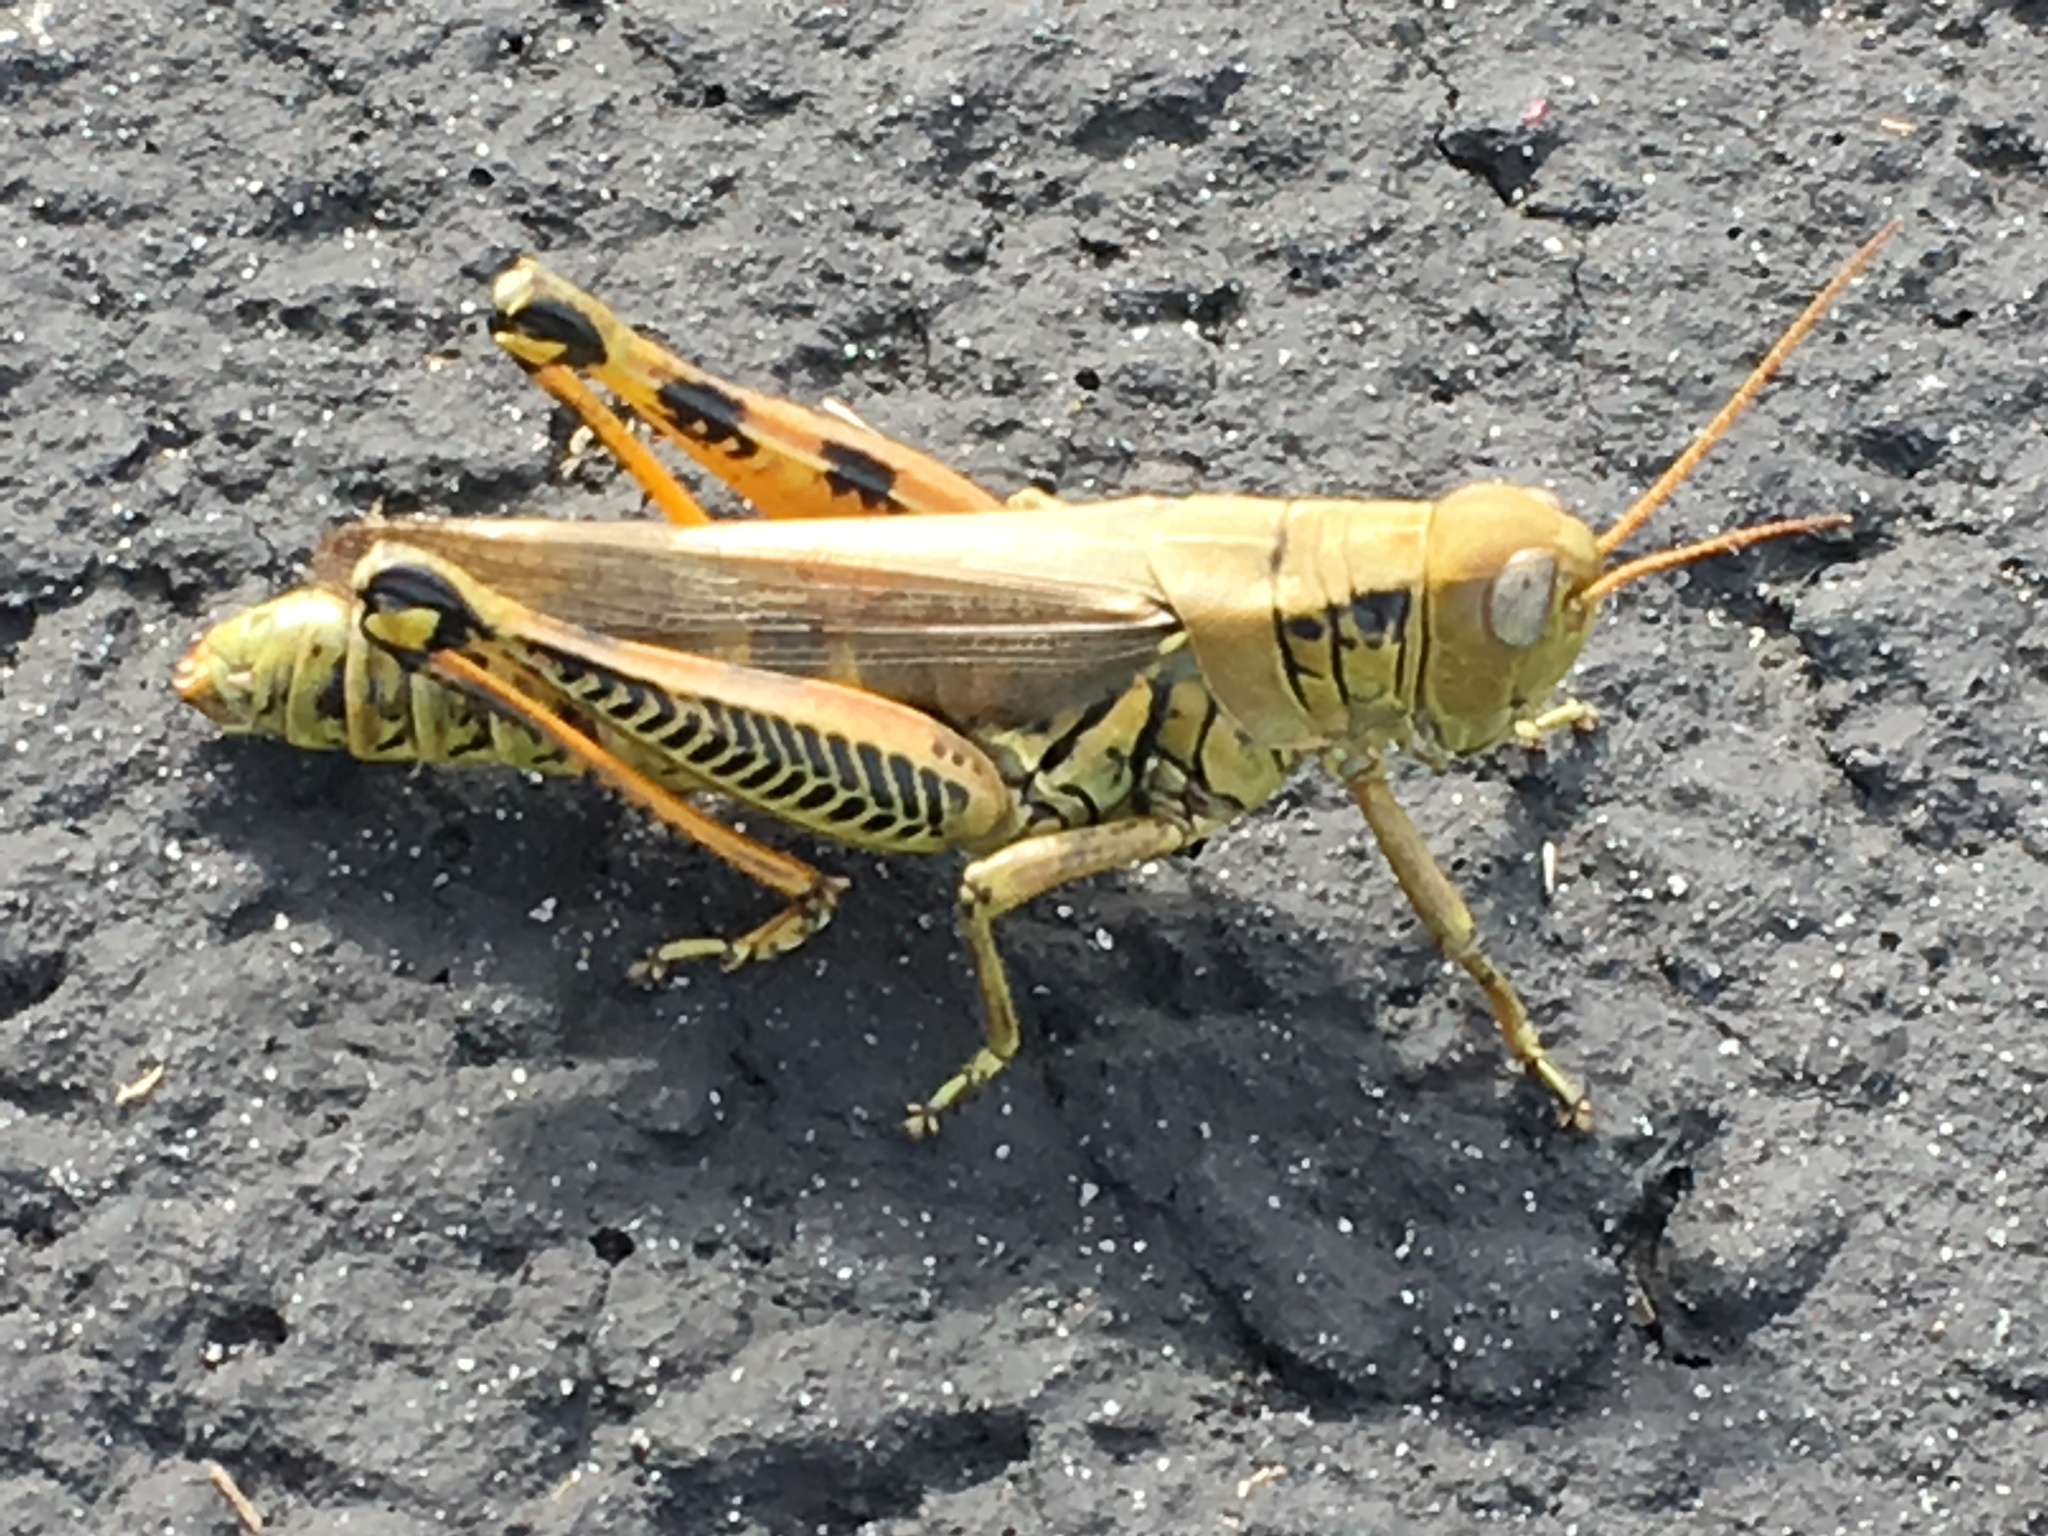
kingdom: Animalia
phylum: Arthropoda
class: Insecta
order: Orthoptera
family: Acrididae
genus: Melanoplus
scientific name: Melanoplus differentialis
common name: Differential grasshopper
